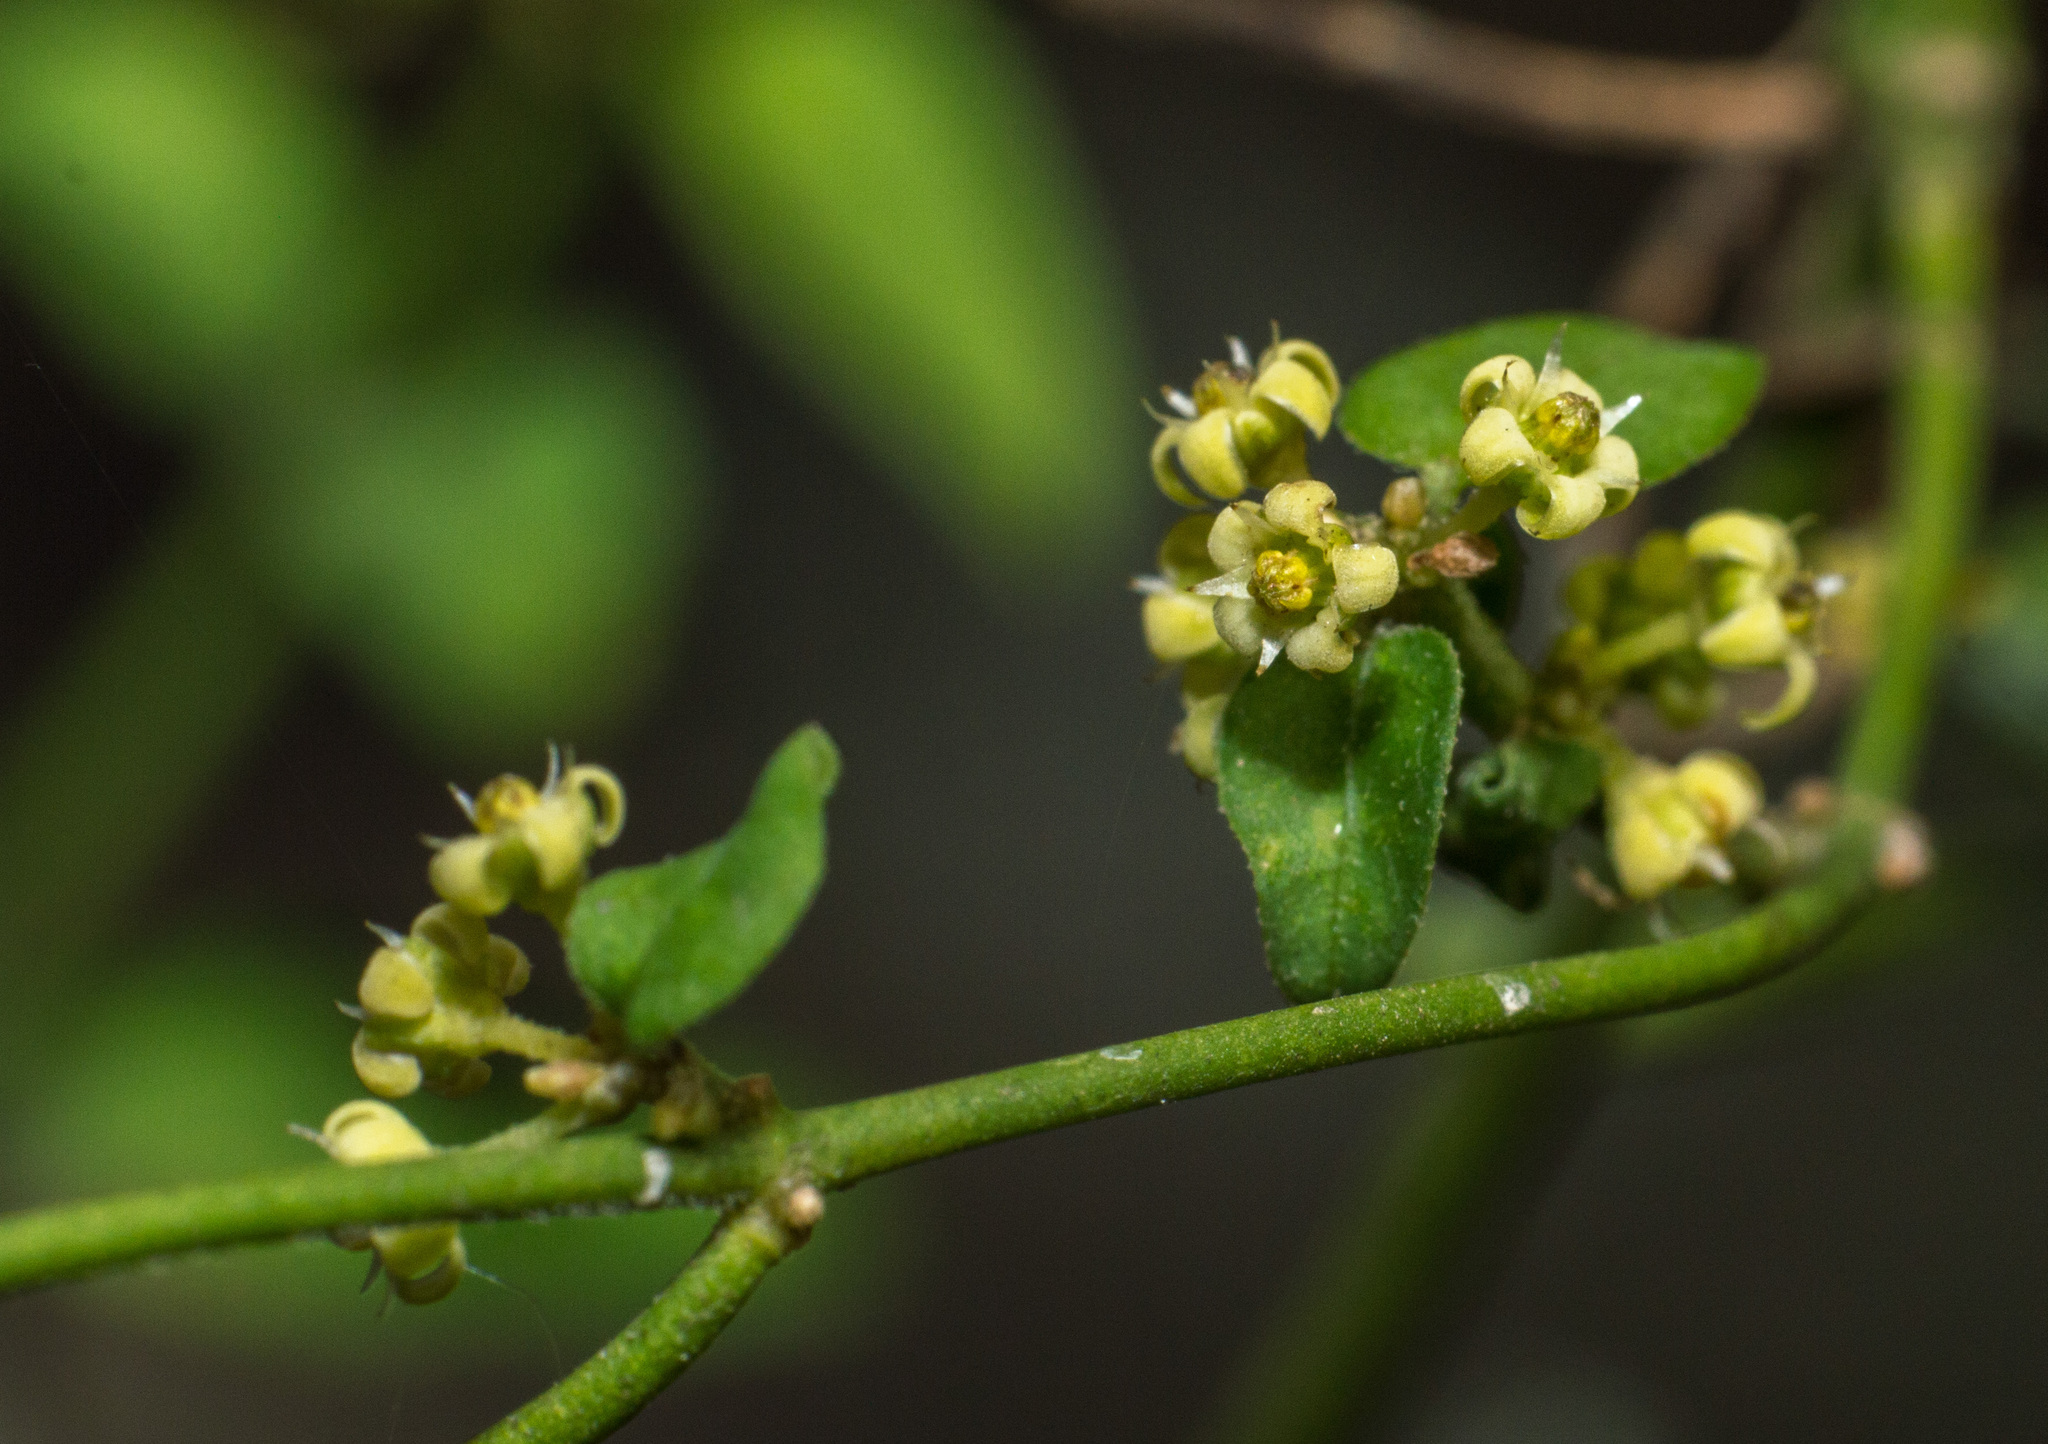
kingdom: Plantae
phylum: Tracheophyta
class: Magnoliopsida
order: Gentianales
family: Apocynaceae
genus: Orthosia
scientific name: Orthosia virgata
